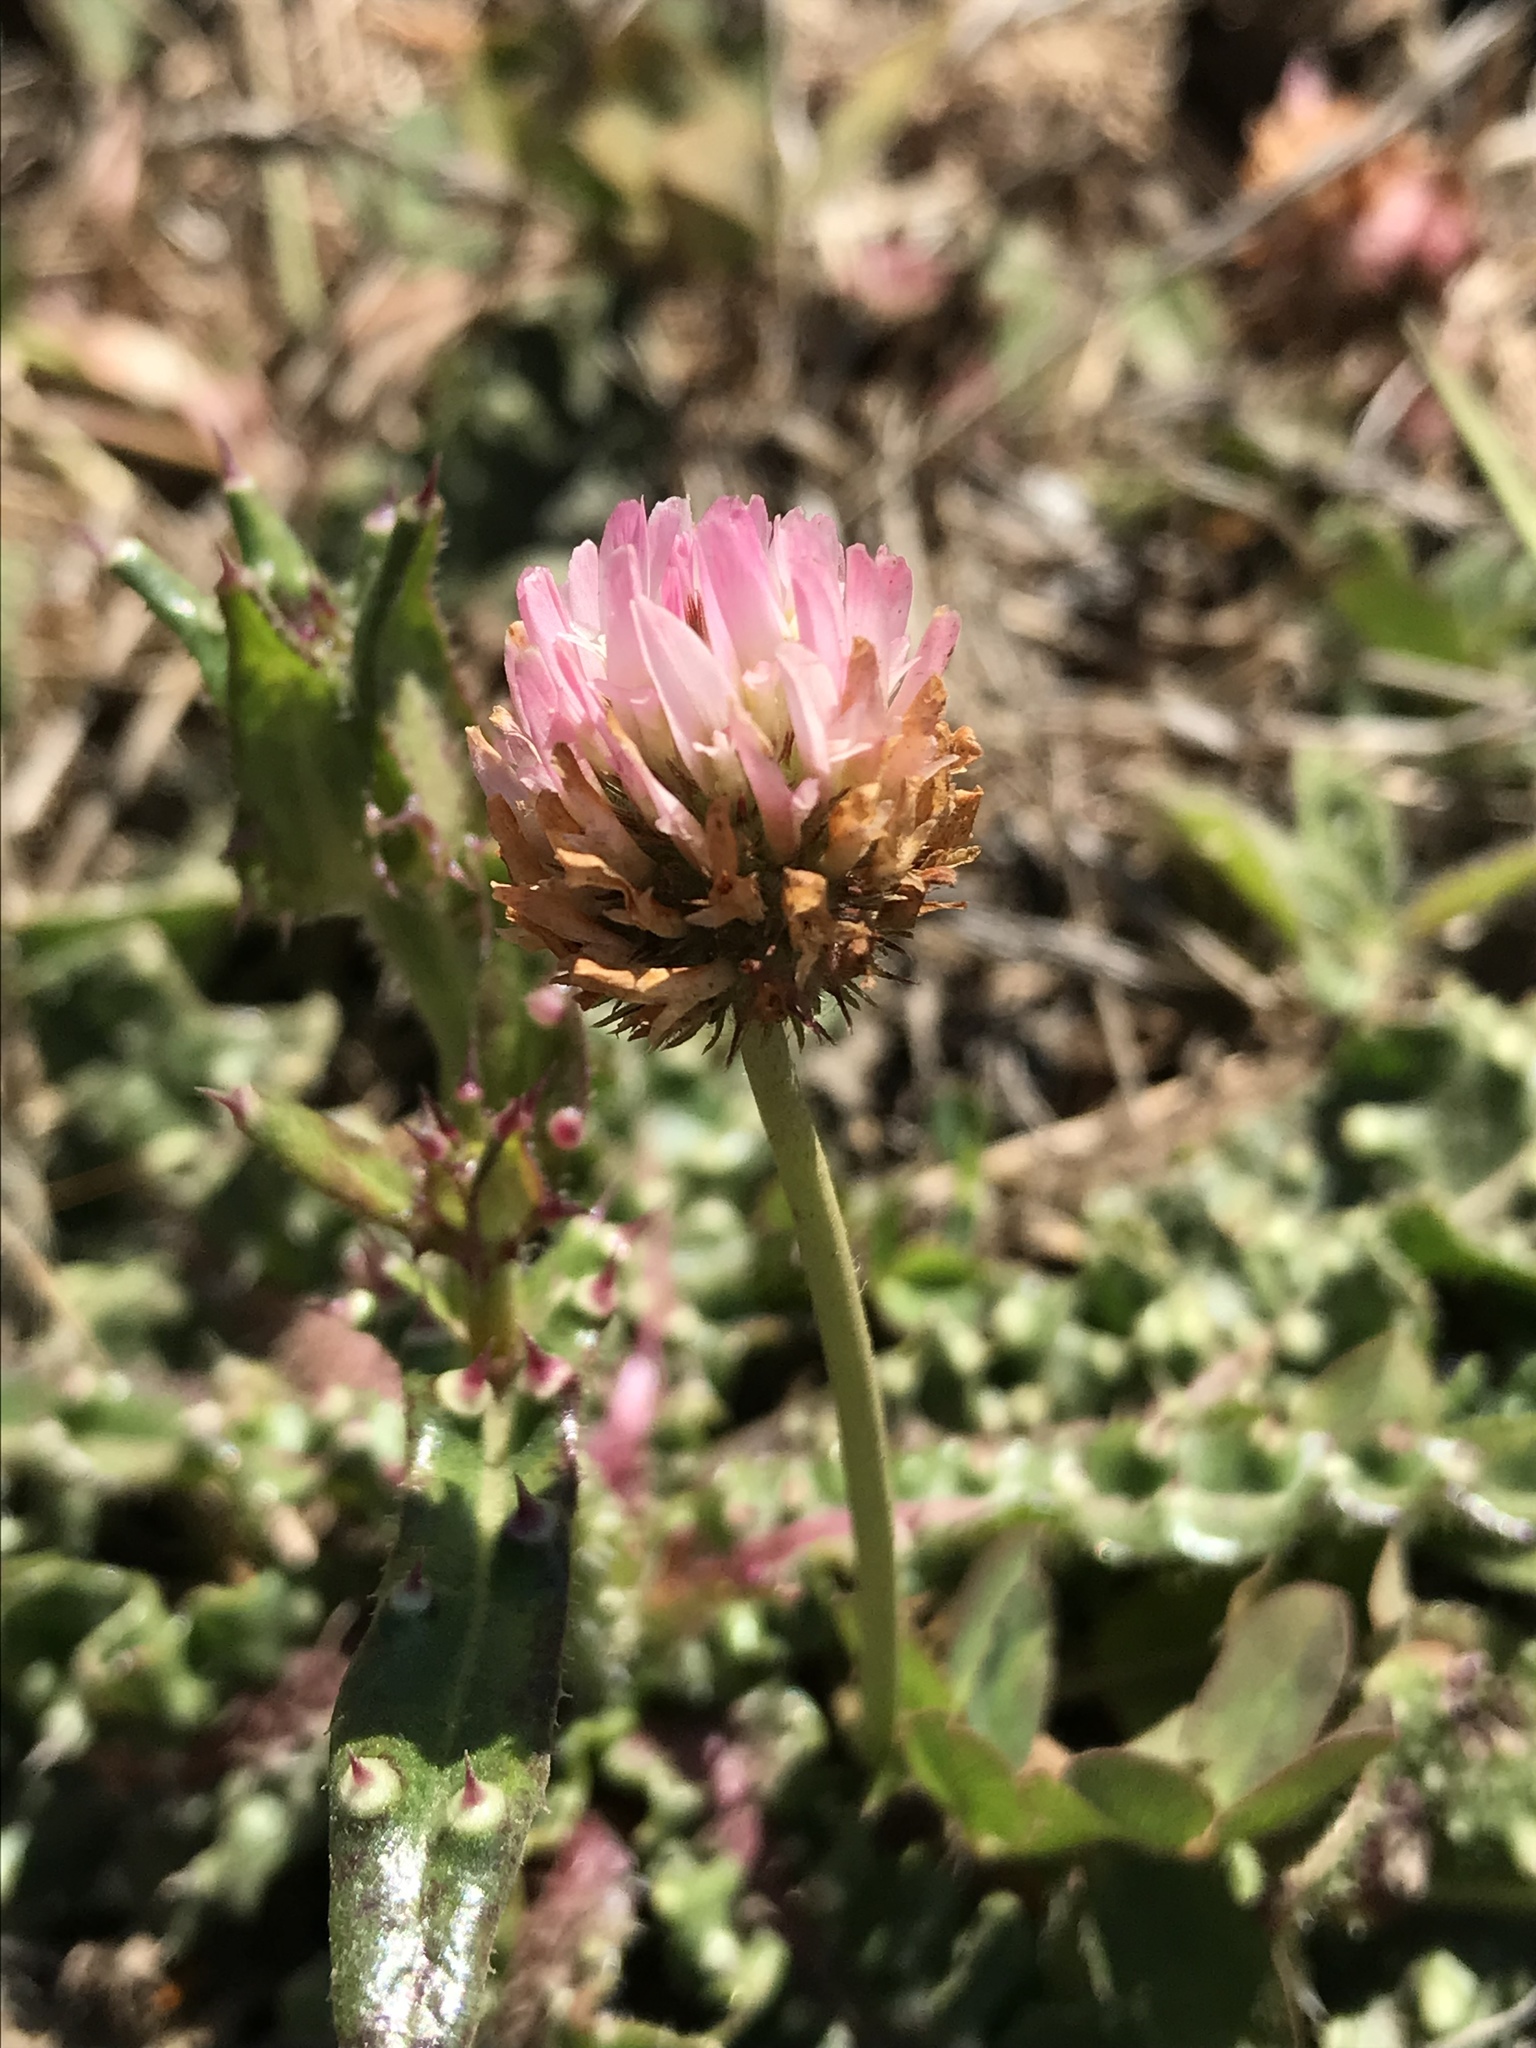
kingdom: Plantae
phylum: Tracheophyta
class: Magnoliopsida
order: Fabales
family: Fabaceae
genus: Trifolium
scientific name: Trifolium fragiferum
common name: Strawberry clover
